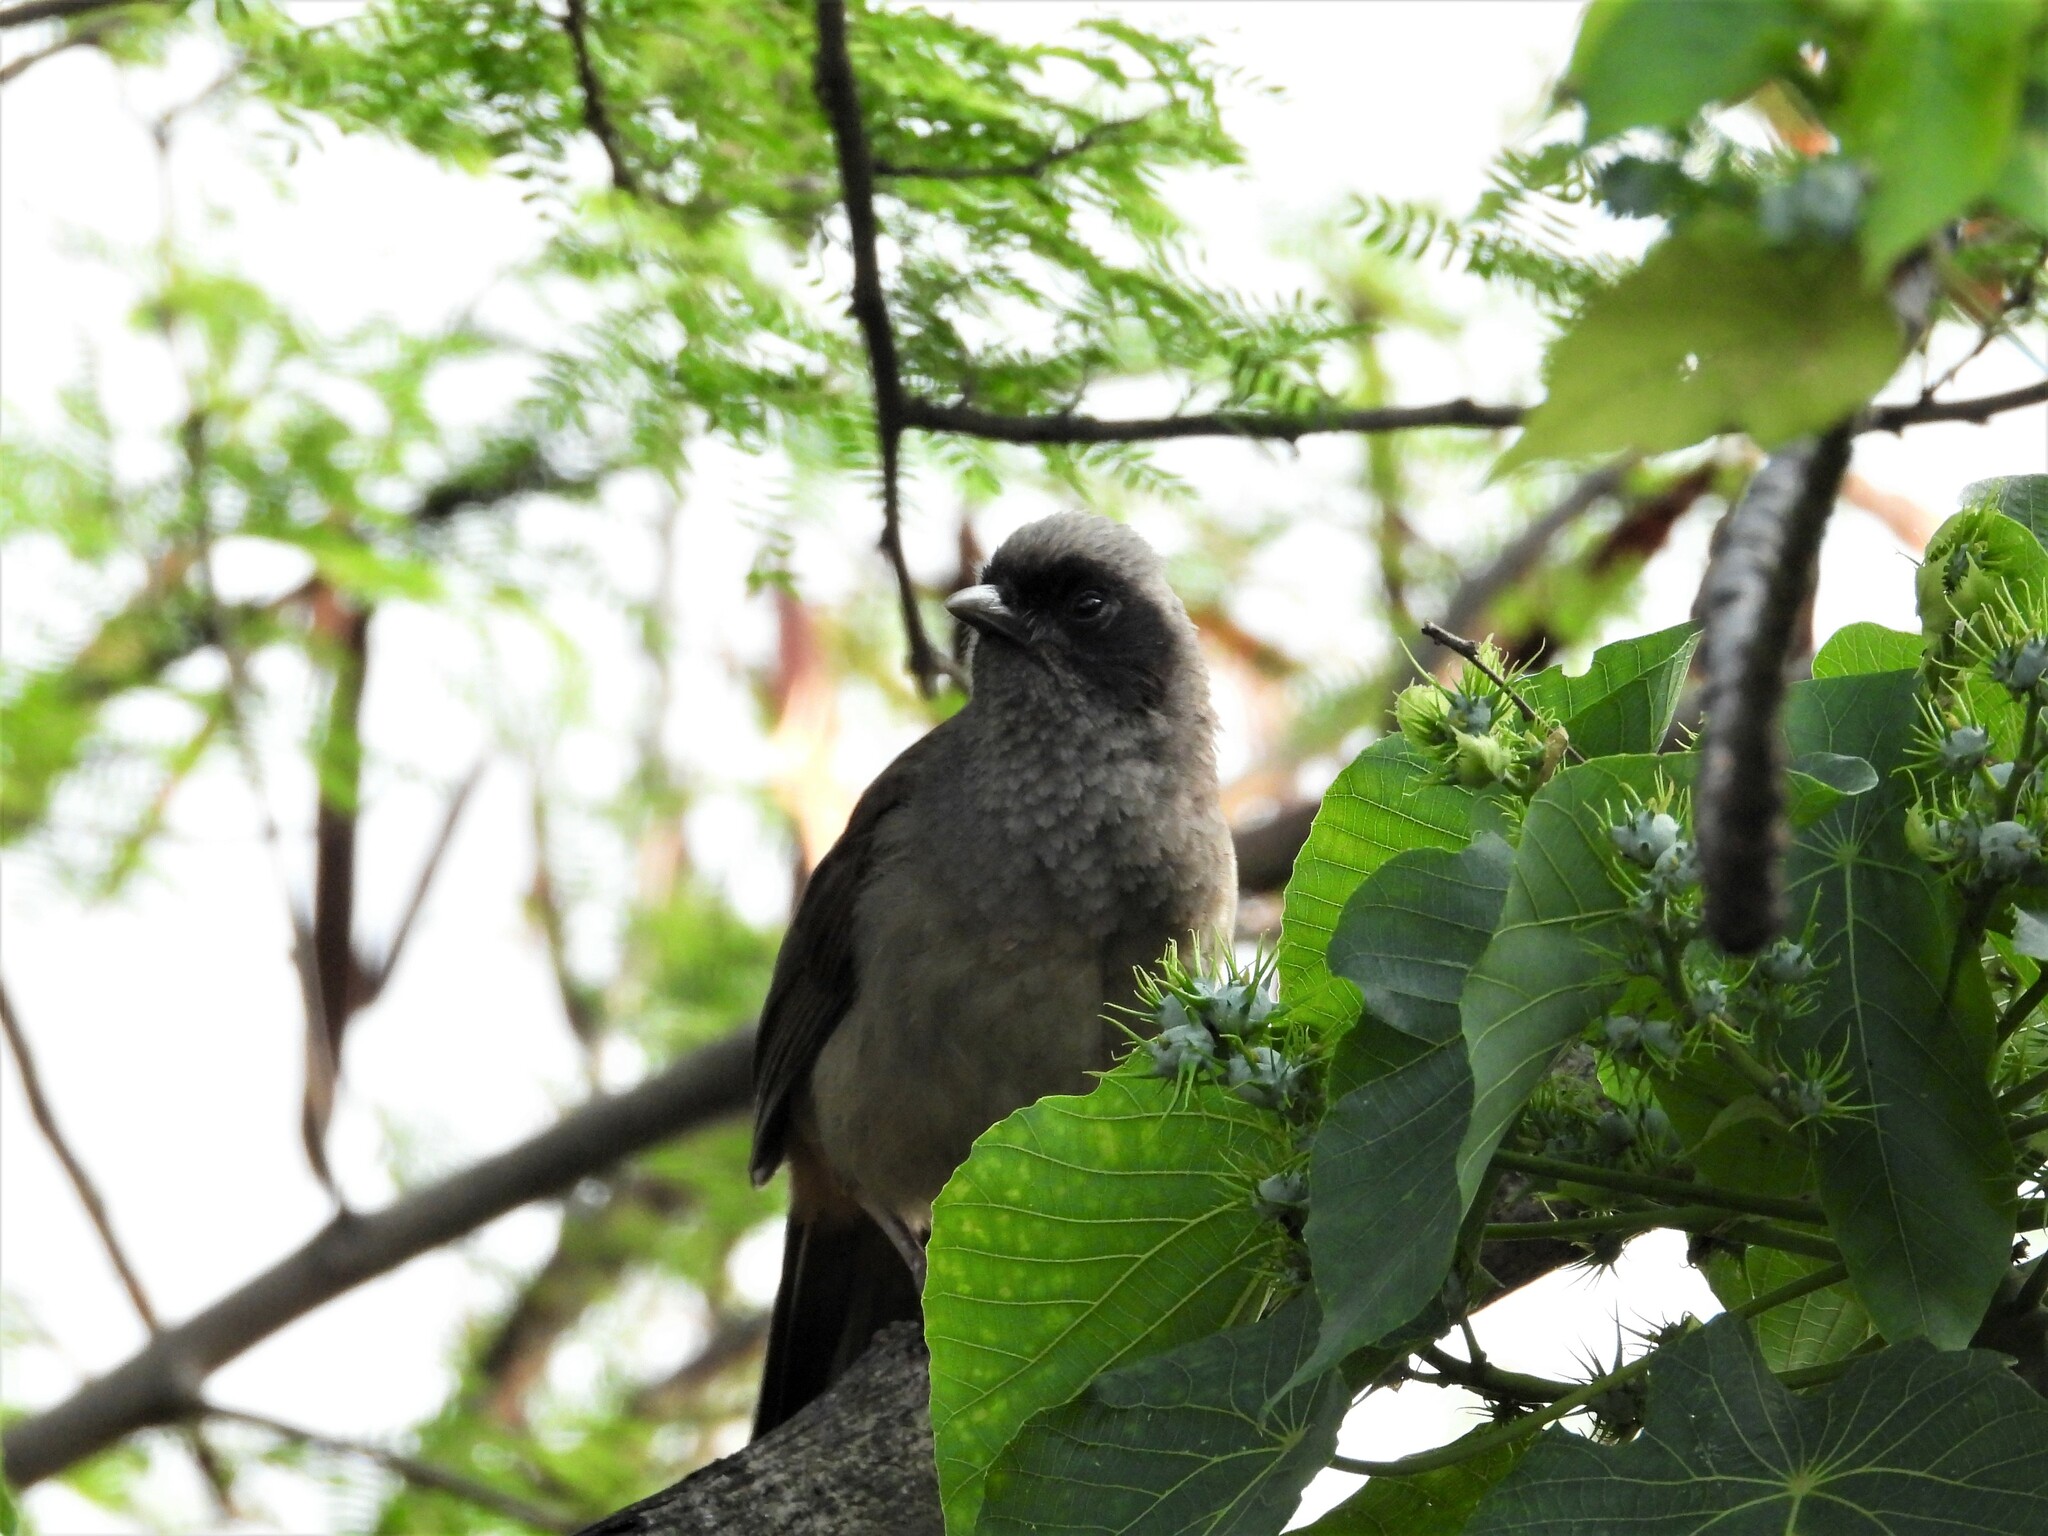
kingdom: Animalia
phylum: Chordata
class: Aves
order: Passeriformes
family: Leiothrichidae
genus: Garrulax
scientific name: Garrulax perspicillatus
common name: Masked laughingthrush
